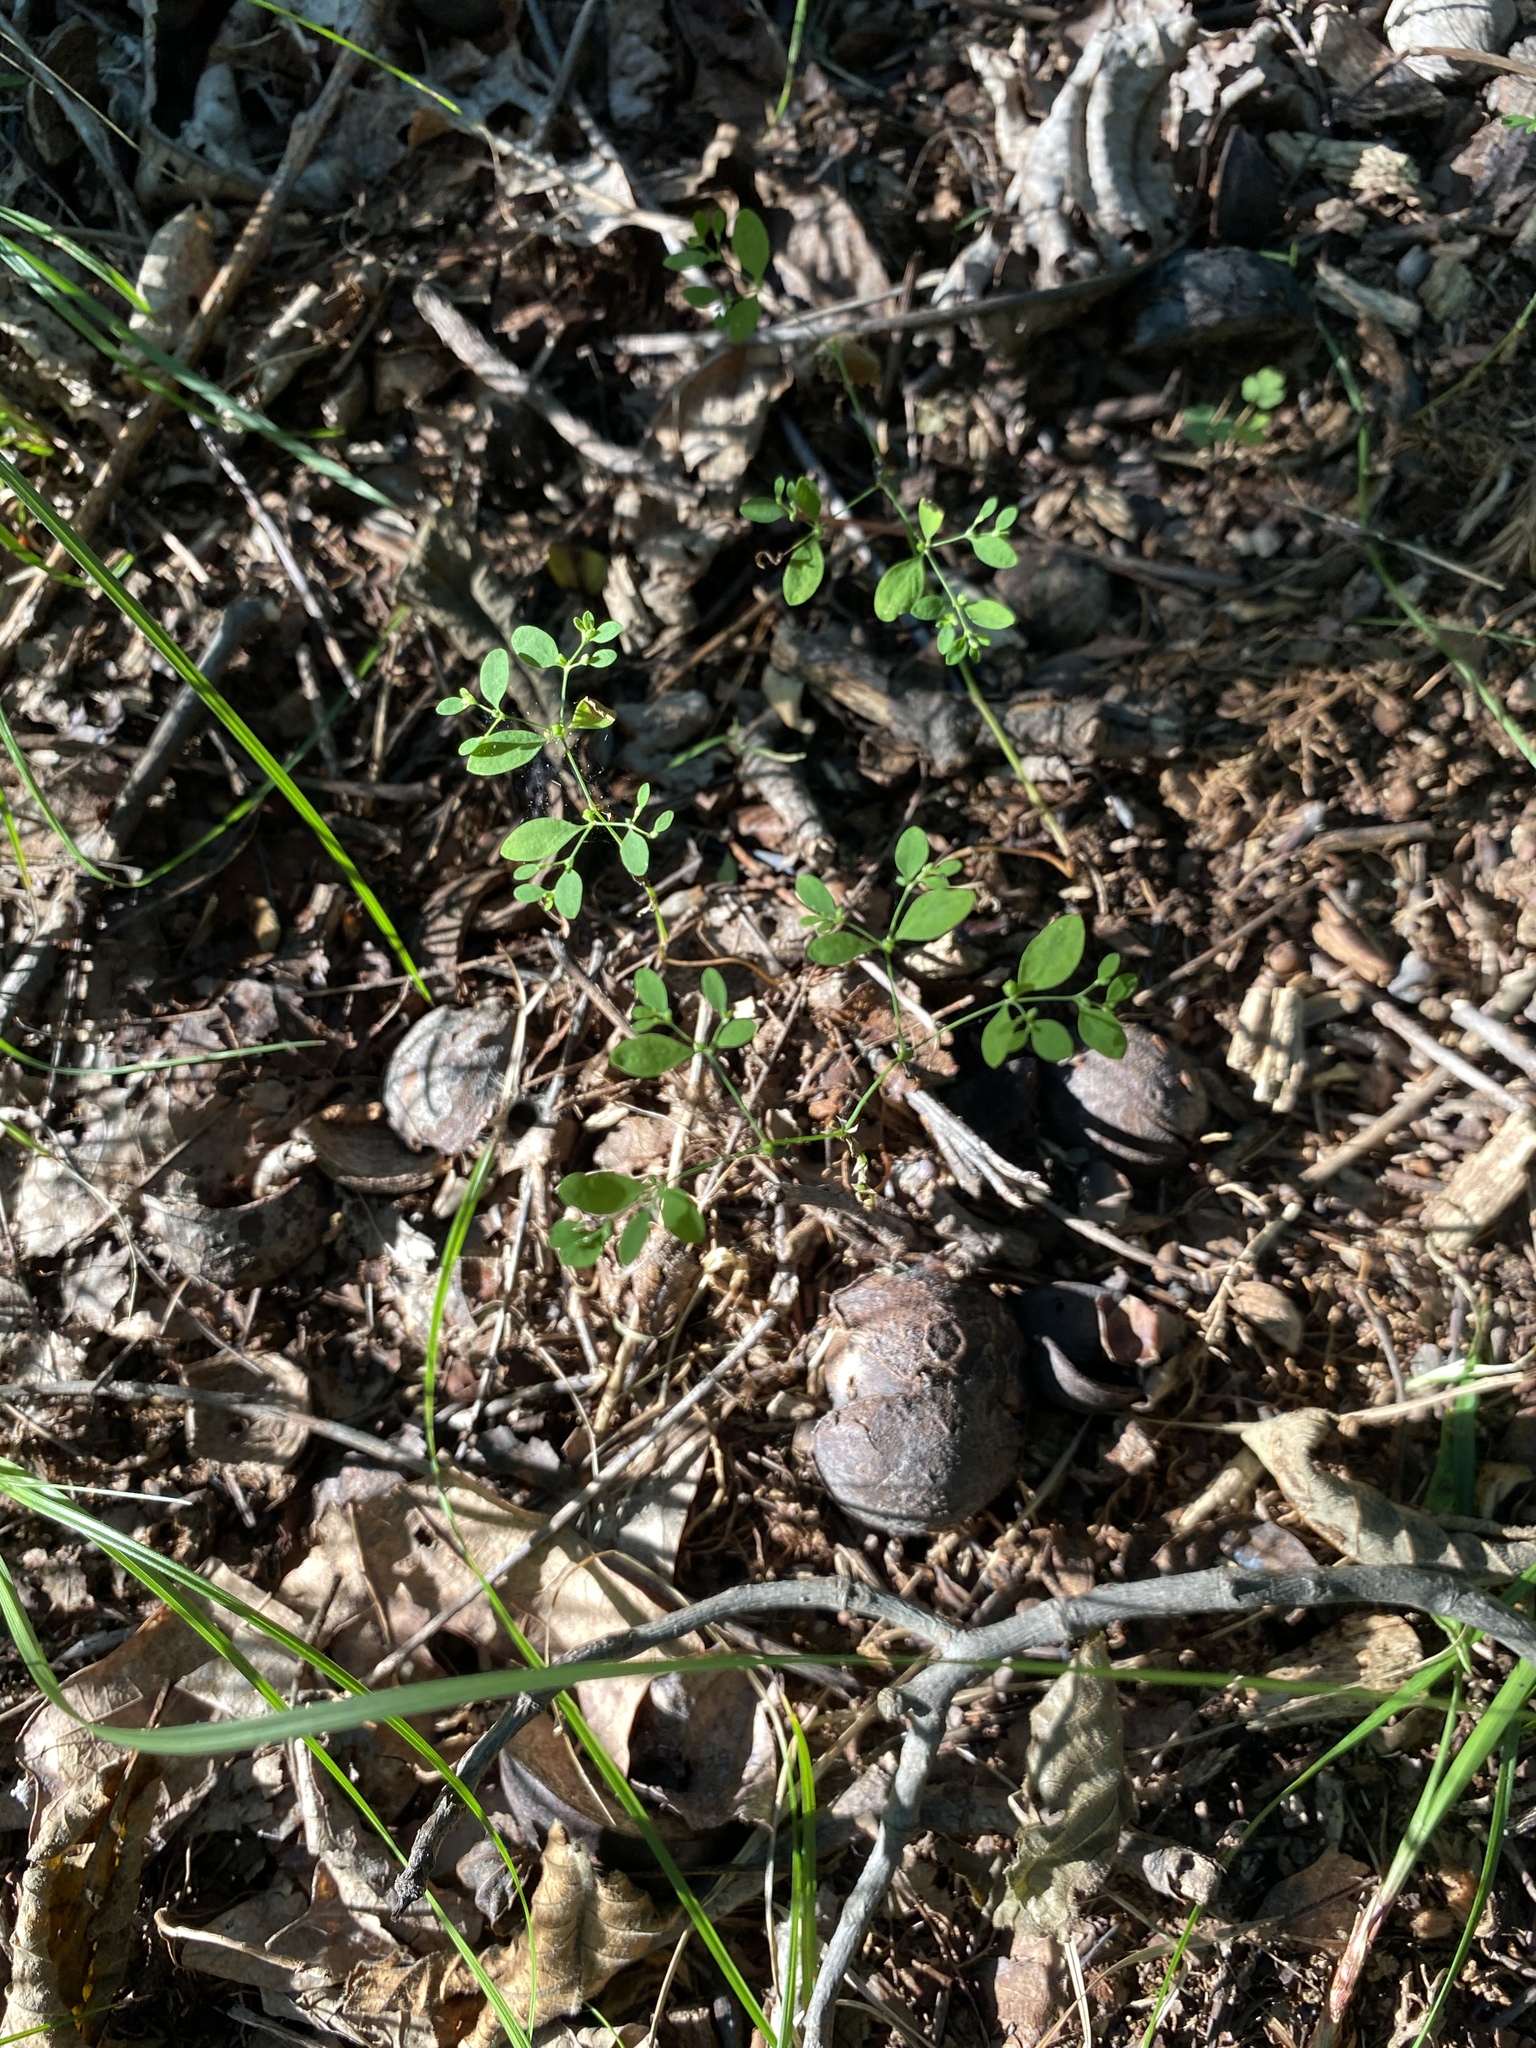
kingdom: Plantae
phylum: Tracheophyta
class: Magnoliopsida
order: Caryophyllales
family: Caryophyllaceae
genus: Paronychia
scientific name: Paronychia canadensis
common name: Canada forked nailwort
